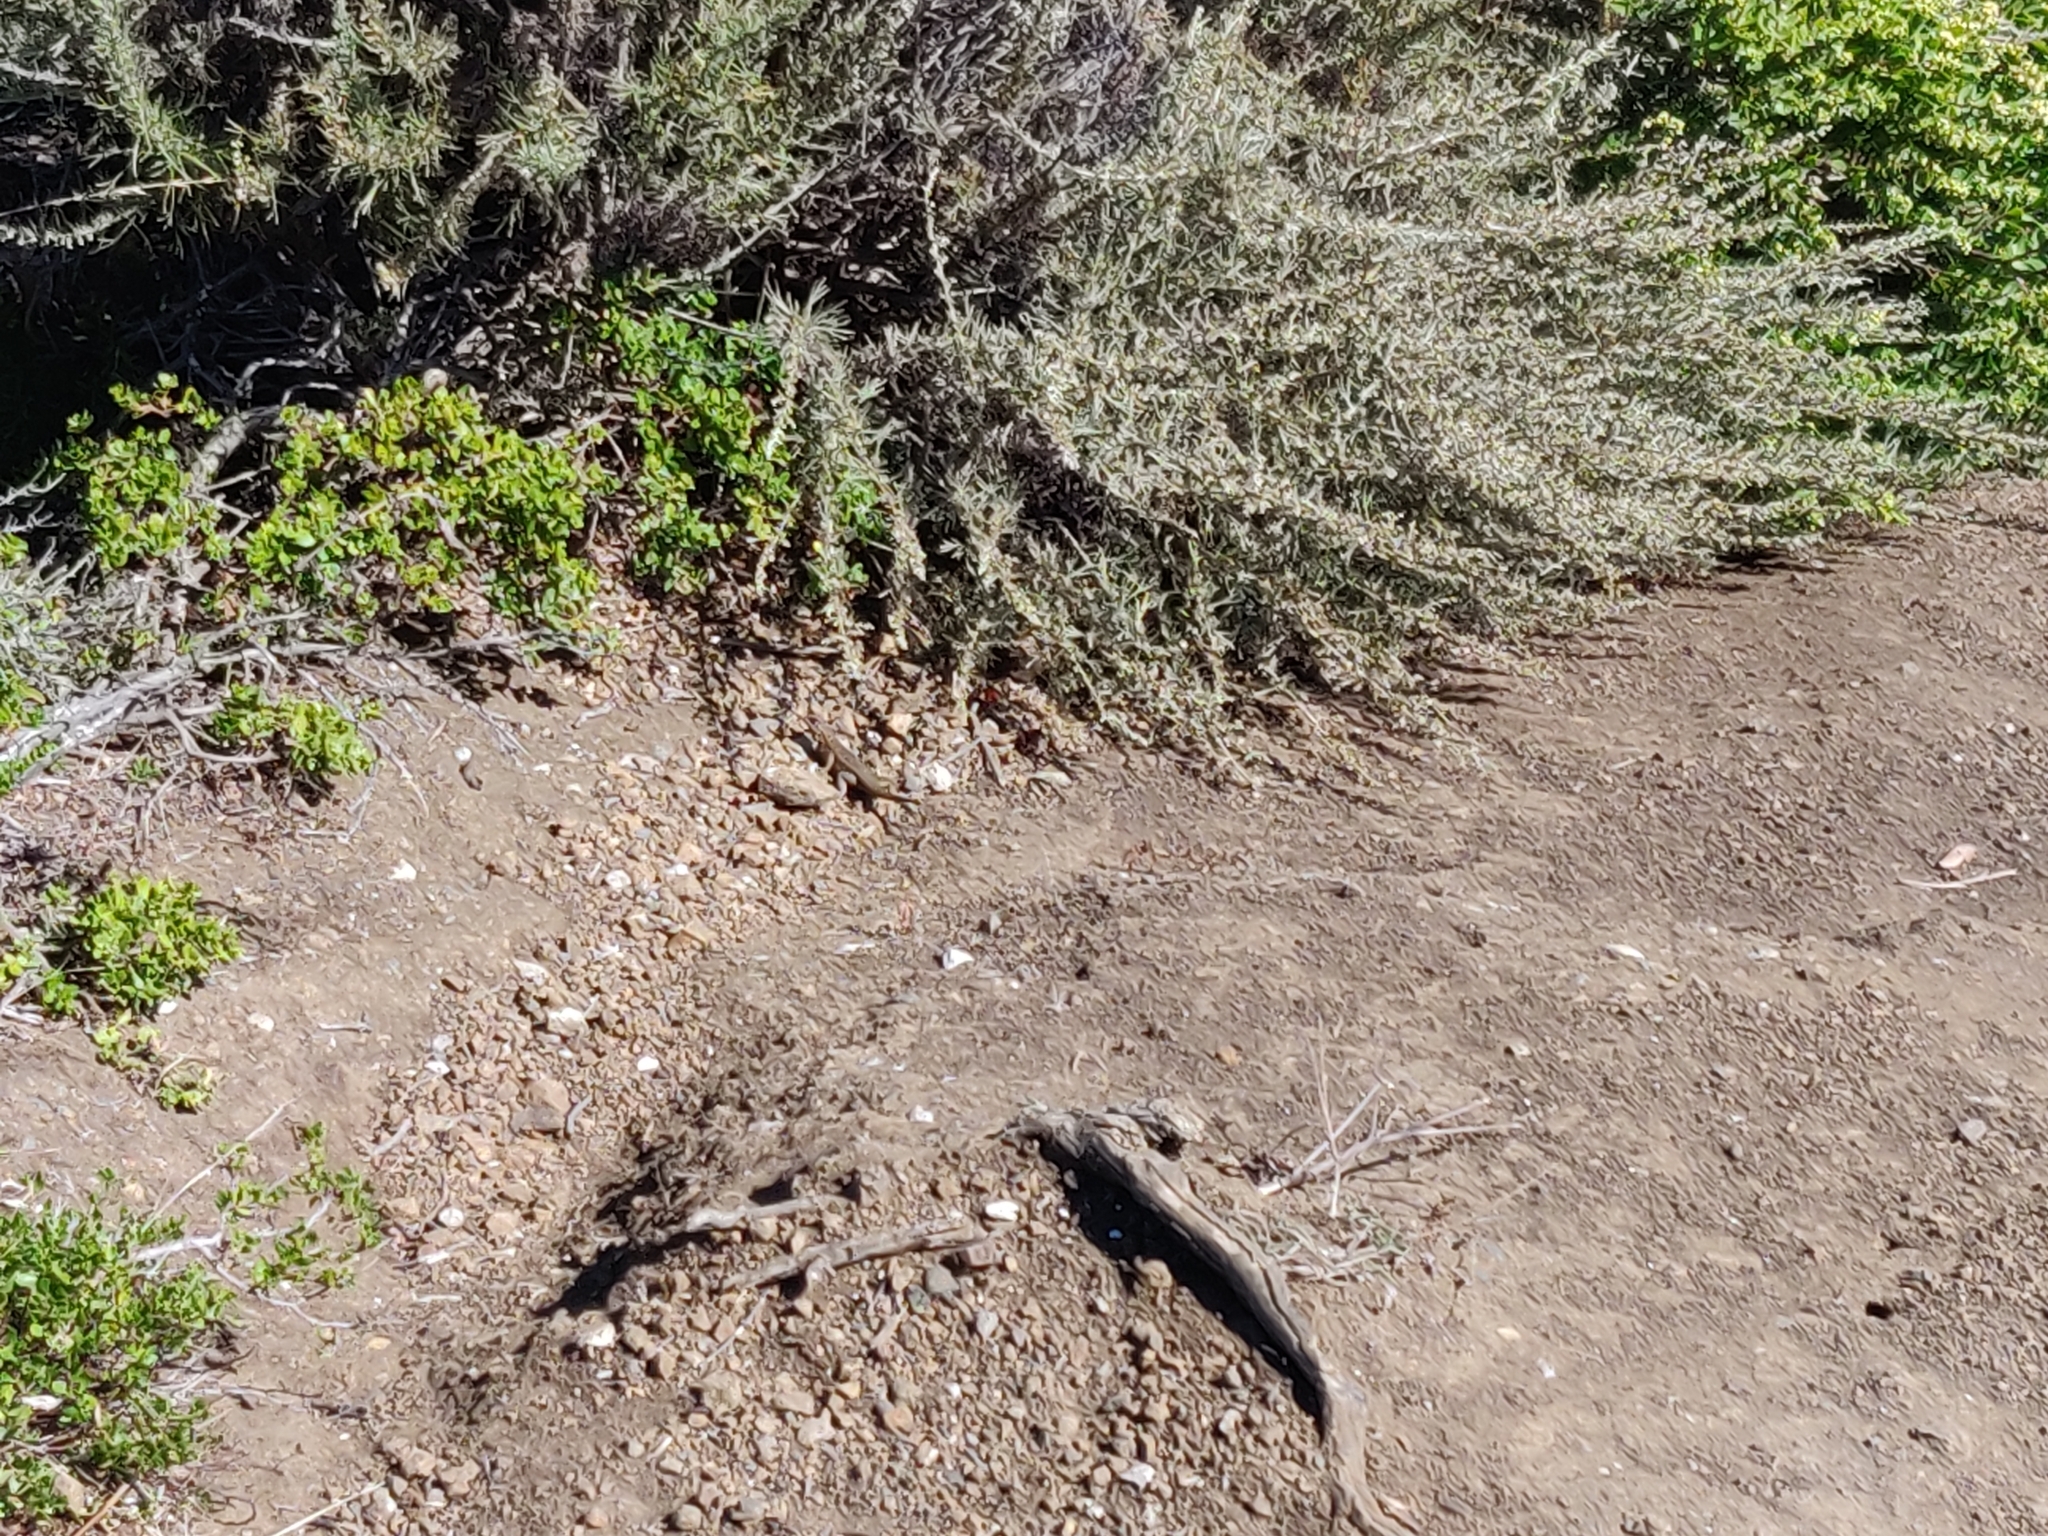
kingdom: Animalia
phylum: Chordata
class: Squamata
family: Phrynosomatidae
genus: Sceloporus
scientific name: Sceloporus occidentalis
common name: Western fence lizard
